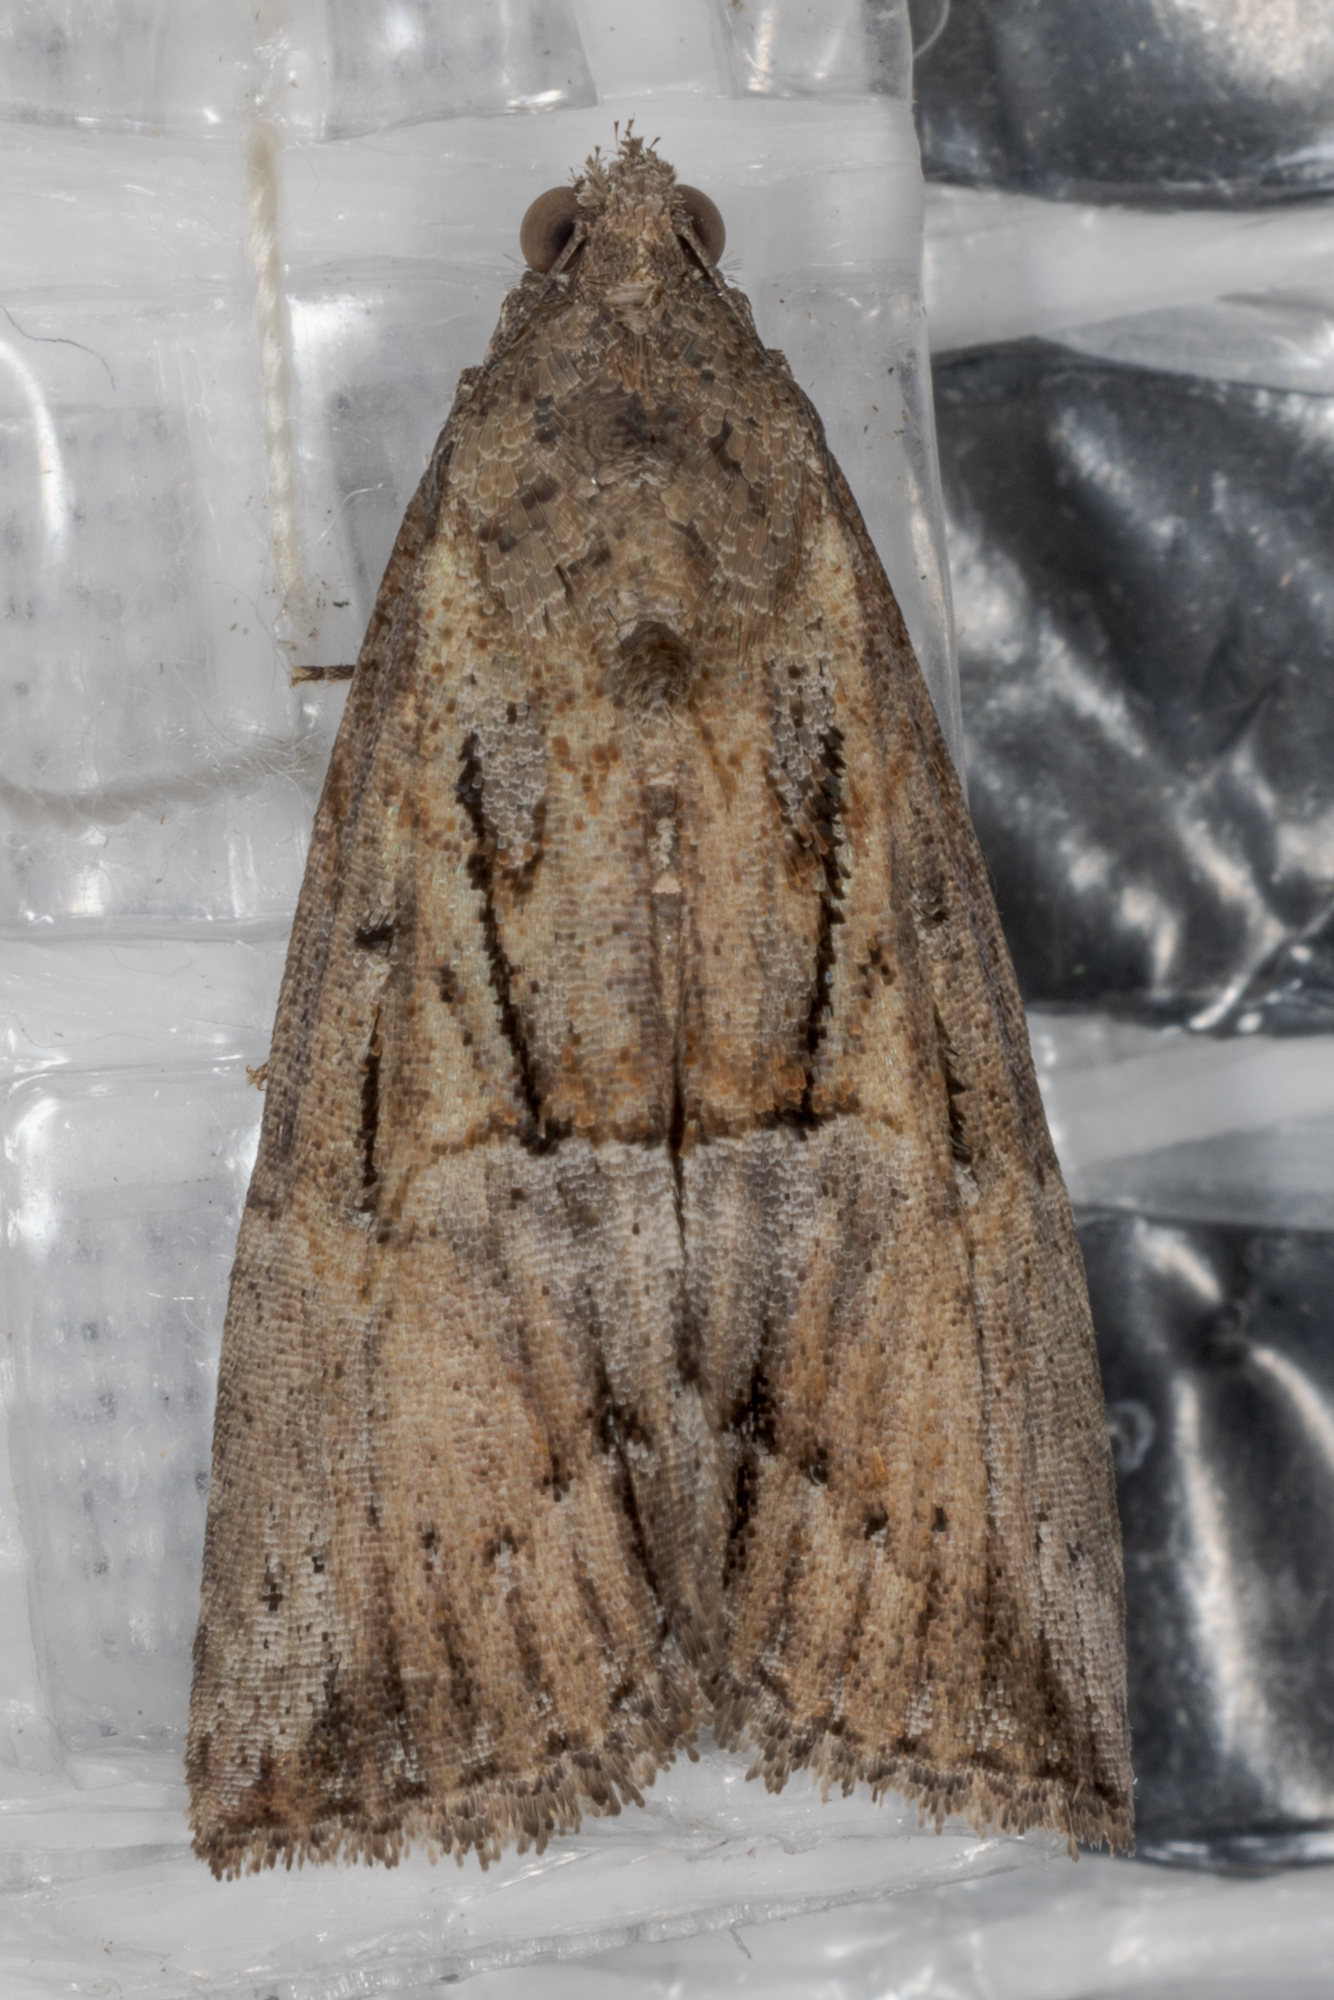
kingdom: Animalia
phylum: Arthropoda
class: Insecta
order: Lepidoptera
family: Erebidae
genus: Hypena
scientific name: Hypena scabra
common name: Green cloverworm
